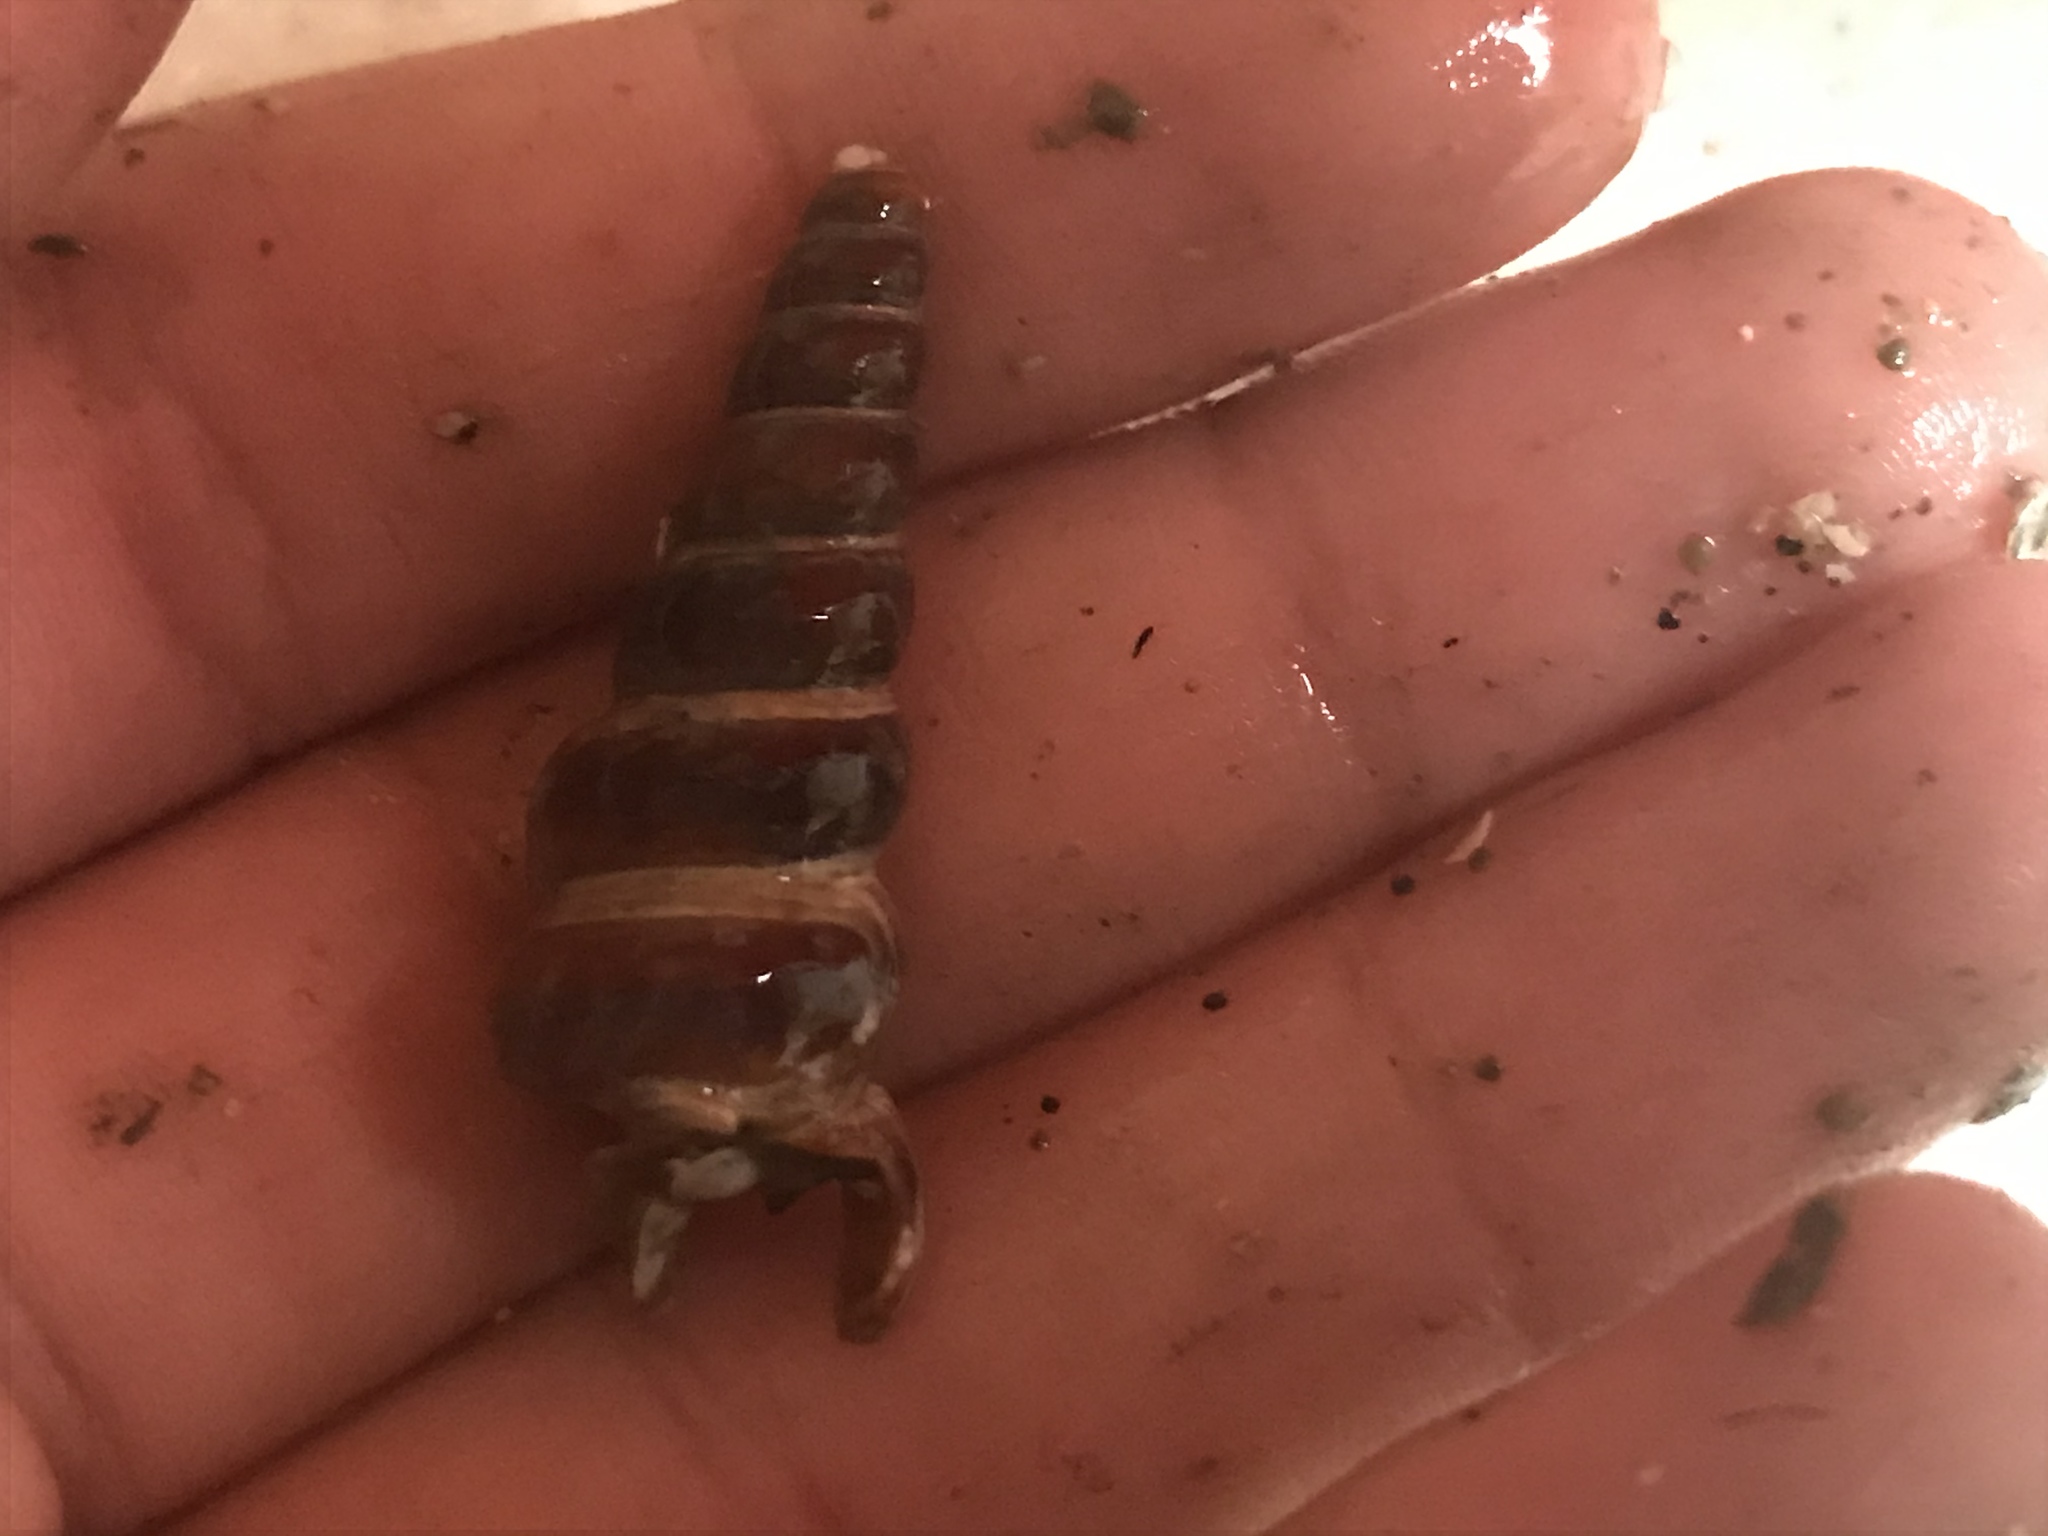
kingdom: Animalia
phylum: Mollusca
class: Gastropoda
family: Potamididae
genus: Cerithideopsis
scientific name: Cerithideopsis californica
